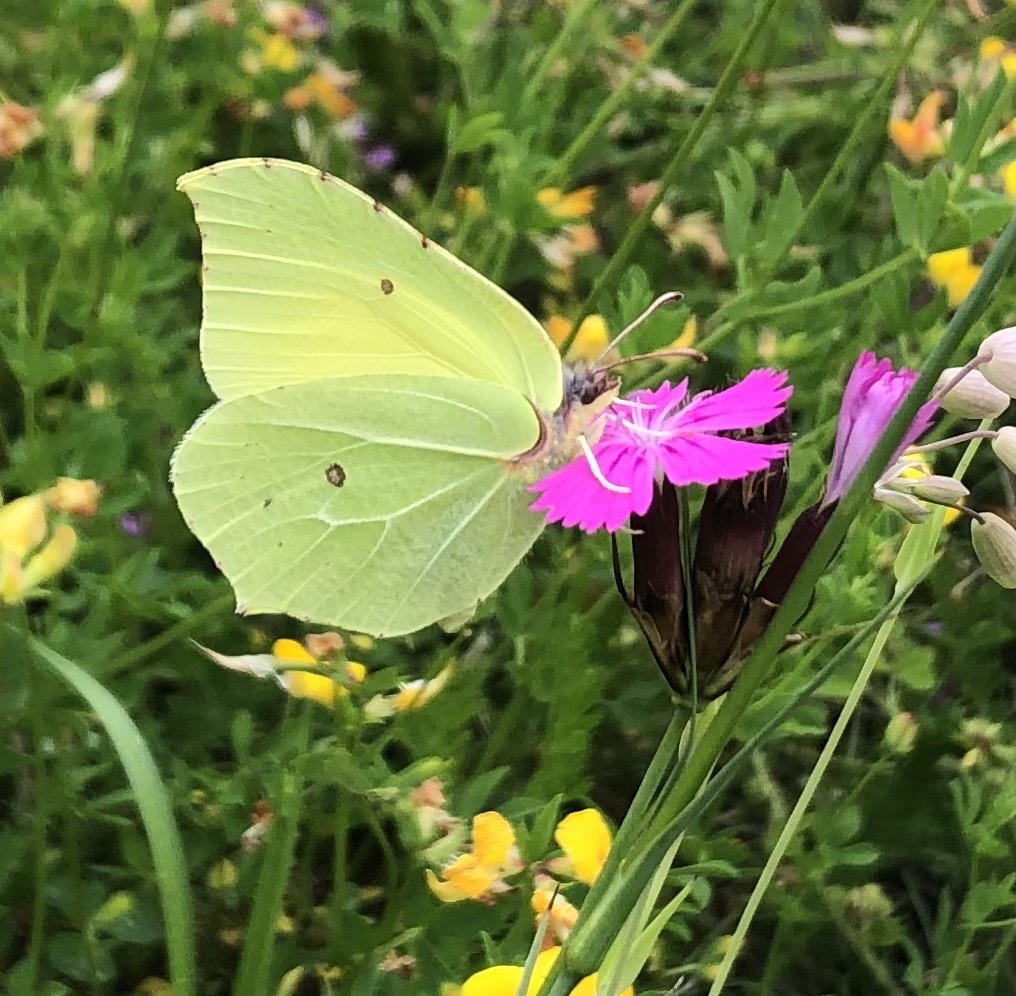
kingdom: Animalia
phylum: Arthropoda
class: Insecta
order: Lepidoptera
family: Pieridae
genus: Gonepteryx
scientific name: Gonepteryx rhamni
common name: Brimstone
